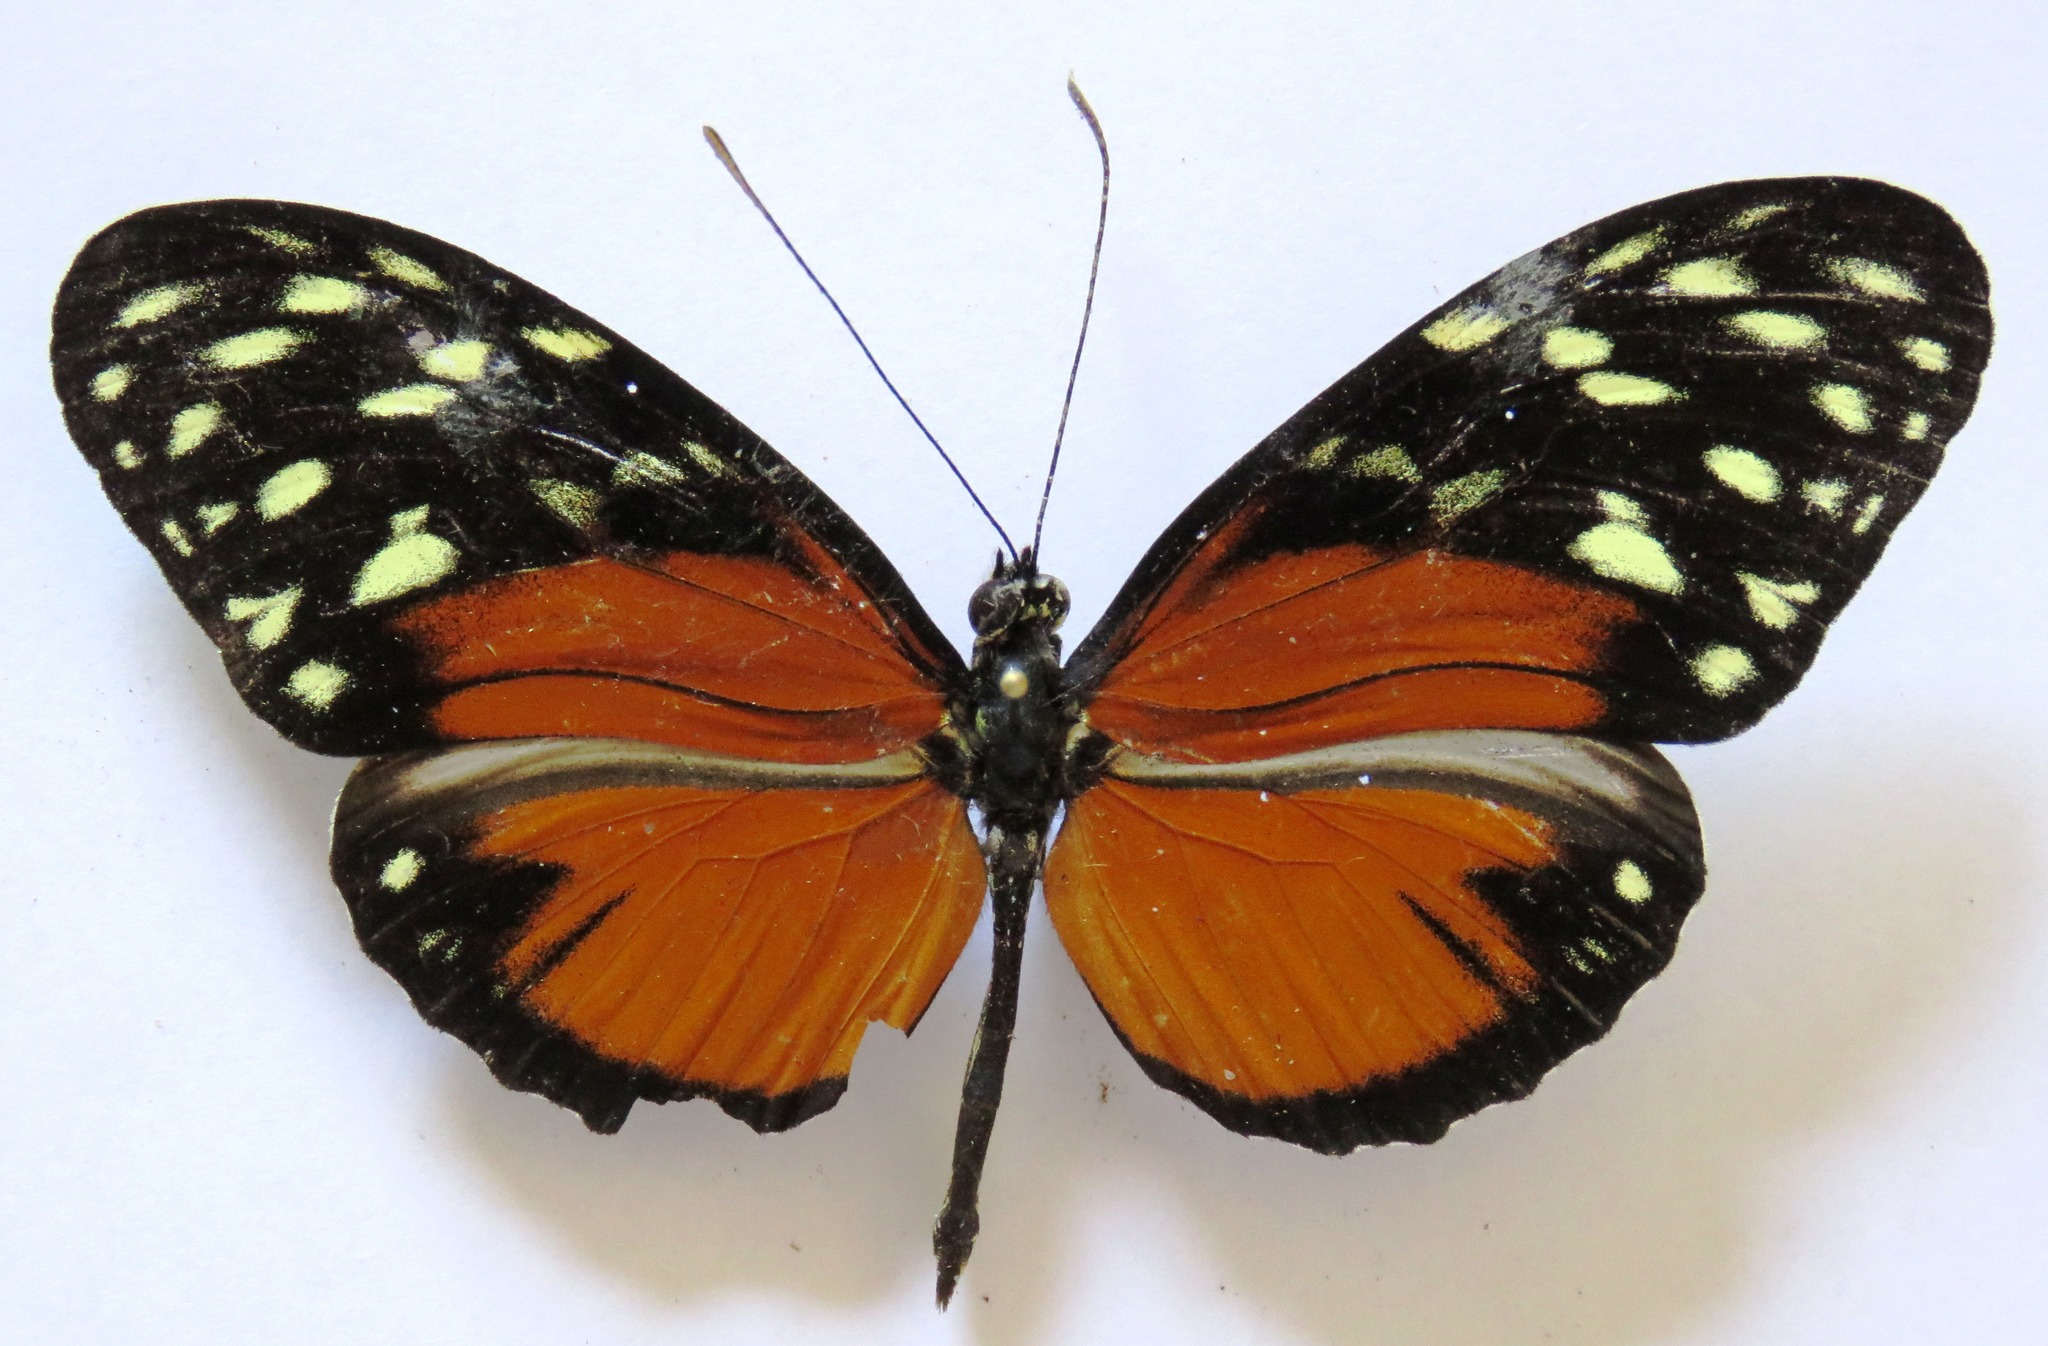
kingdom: Animalia
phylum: Arthropoda
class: Insecta
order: Lepidoptera
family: Nymphalidae
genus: Heliconius
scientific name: Heliconius hecale
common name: Tiger longwing
